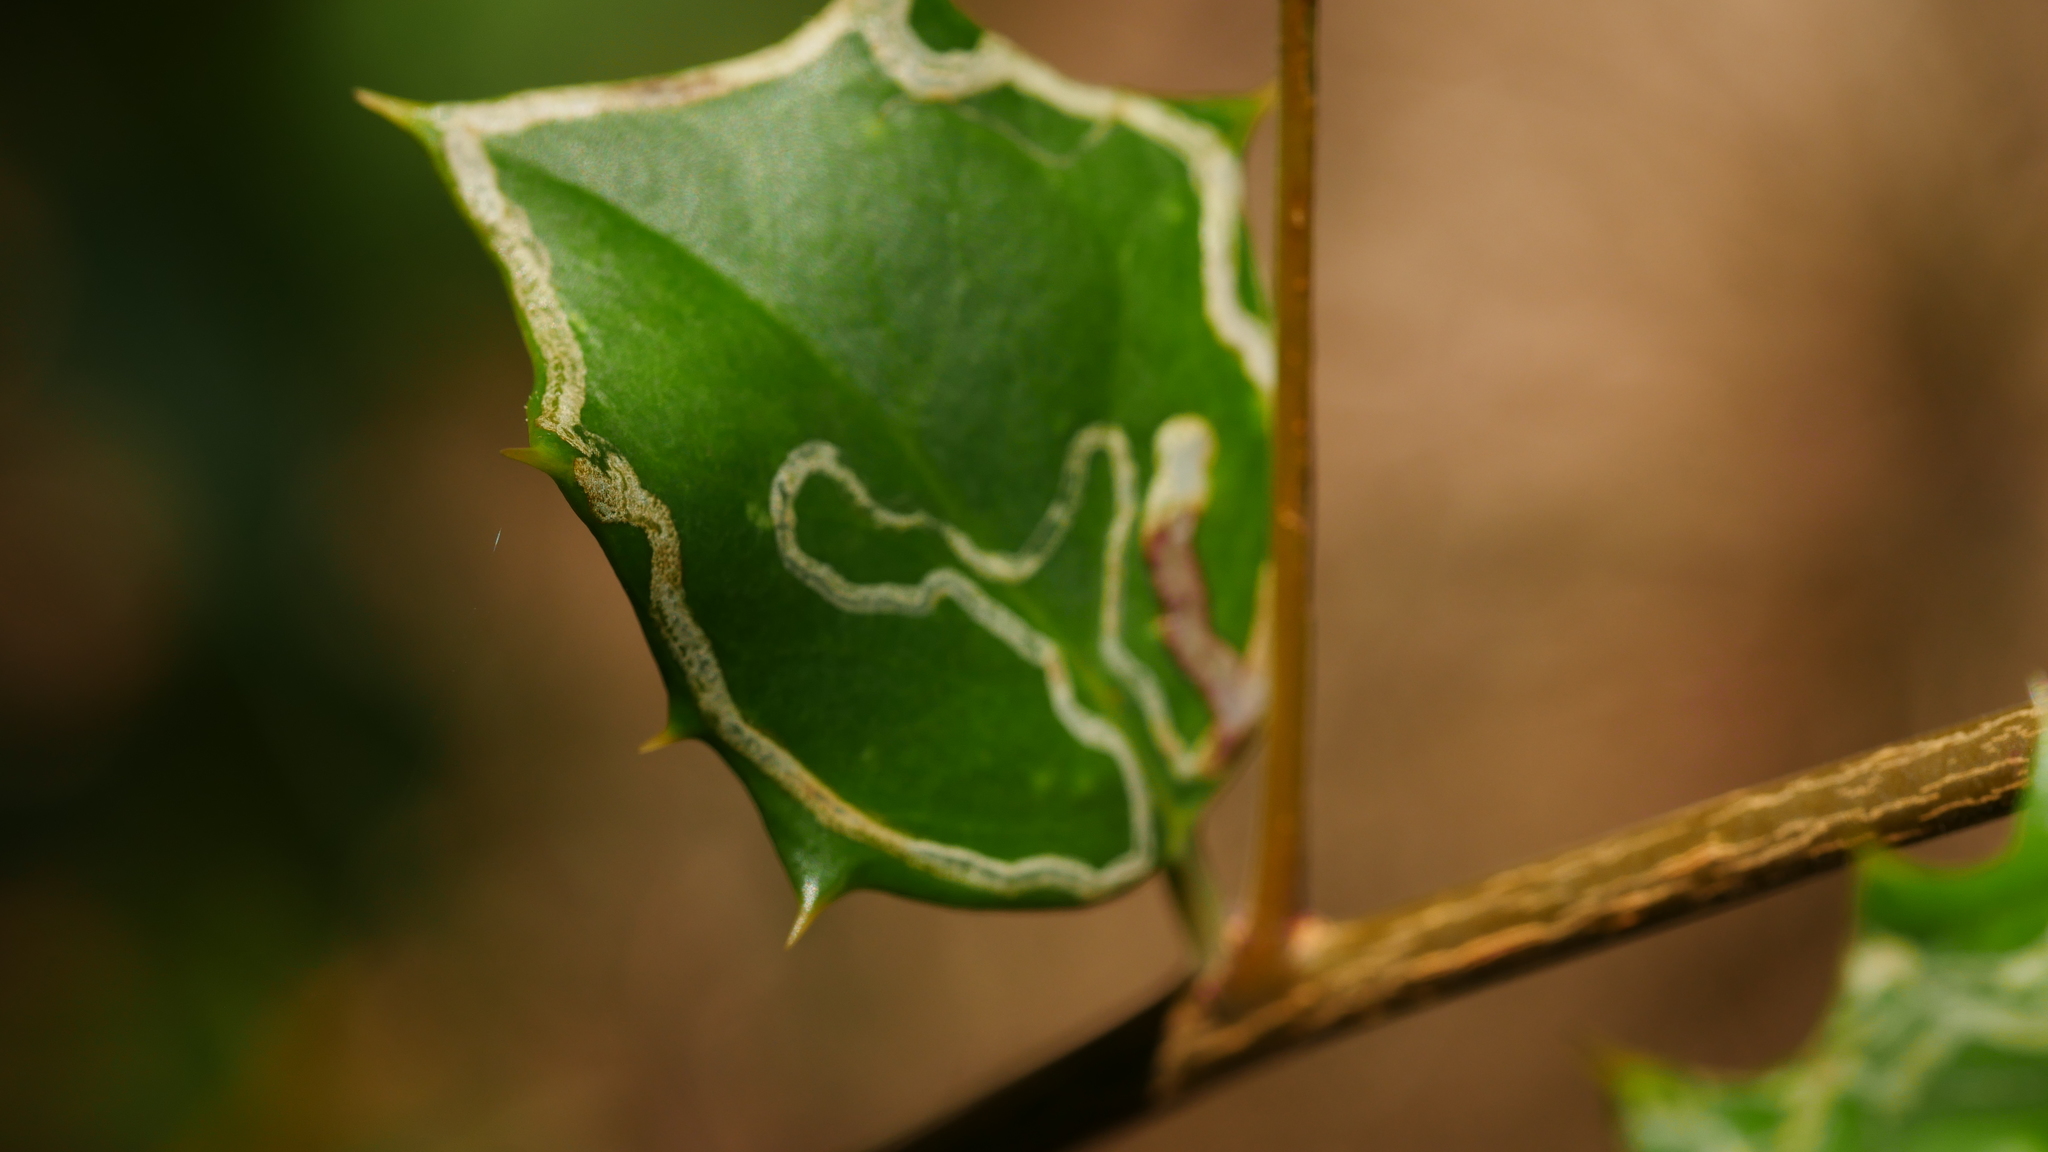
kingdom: Animalia
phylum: Arthropoda
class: Insecta
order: Diptera
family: Agromyzidae
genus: Phytomyza
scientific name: Phytomyza opacae
